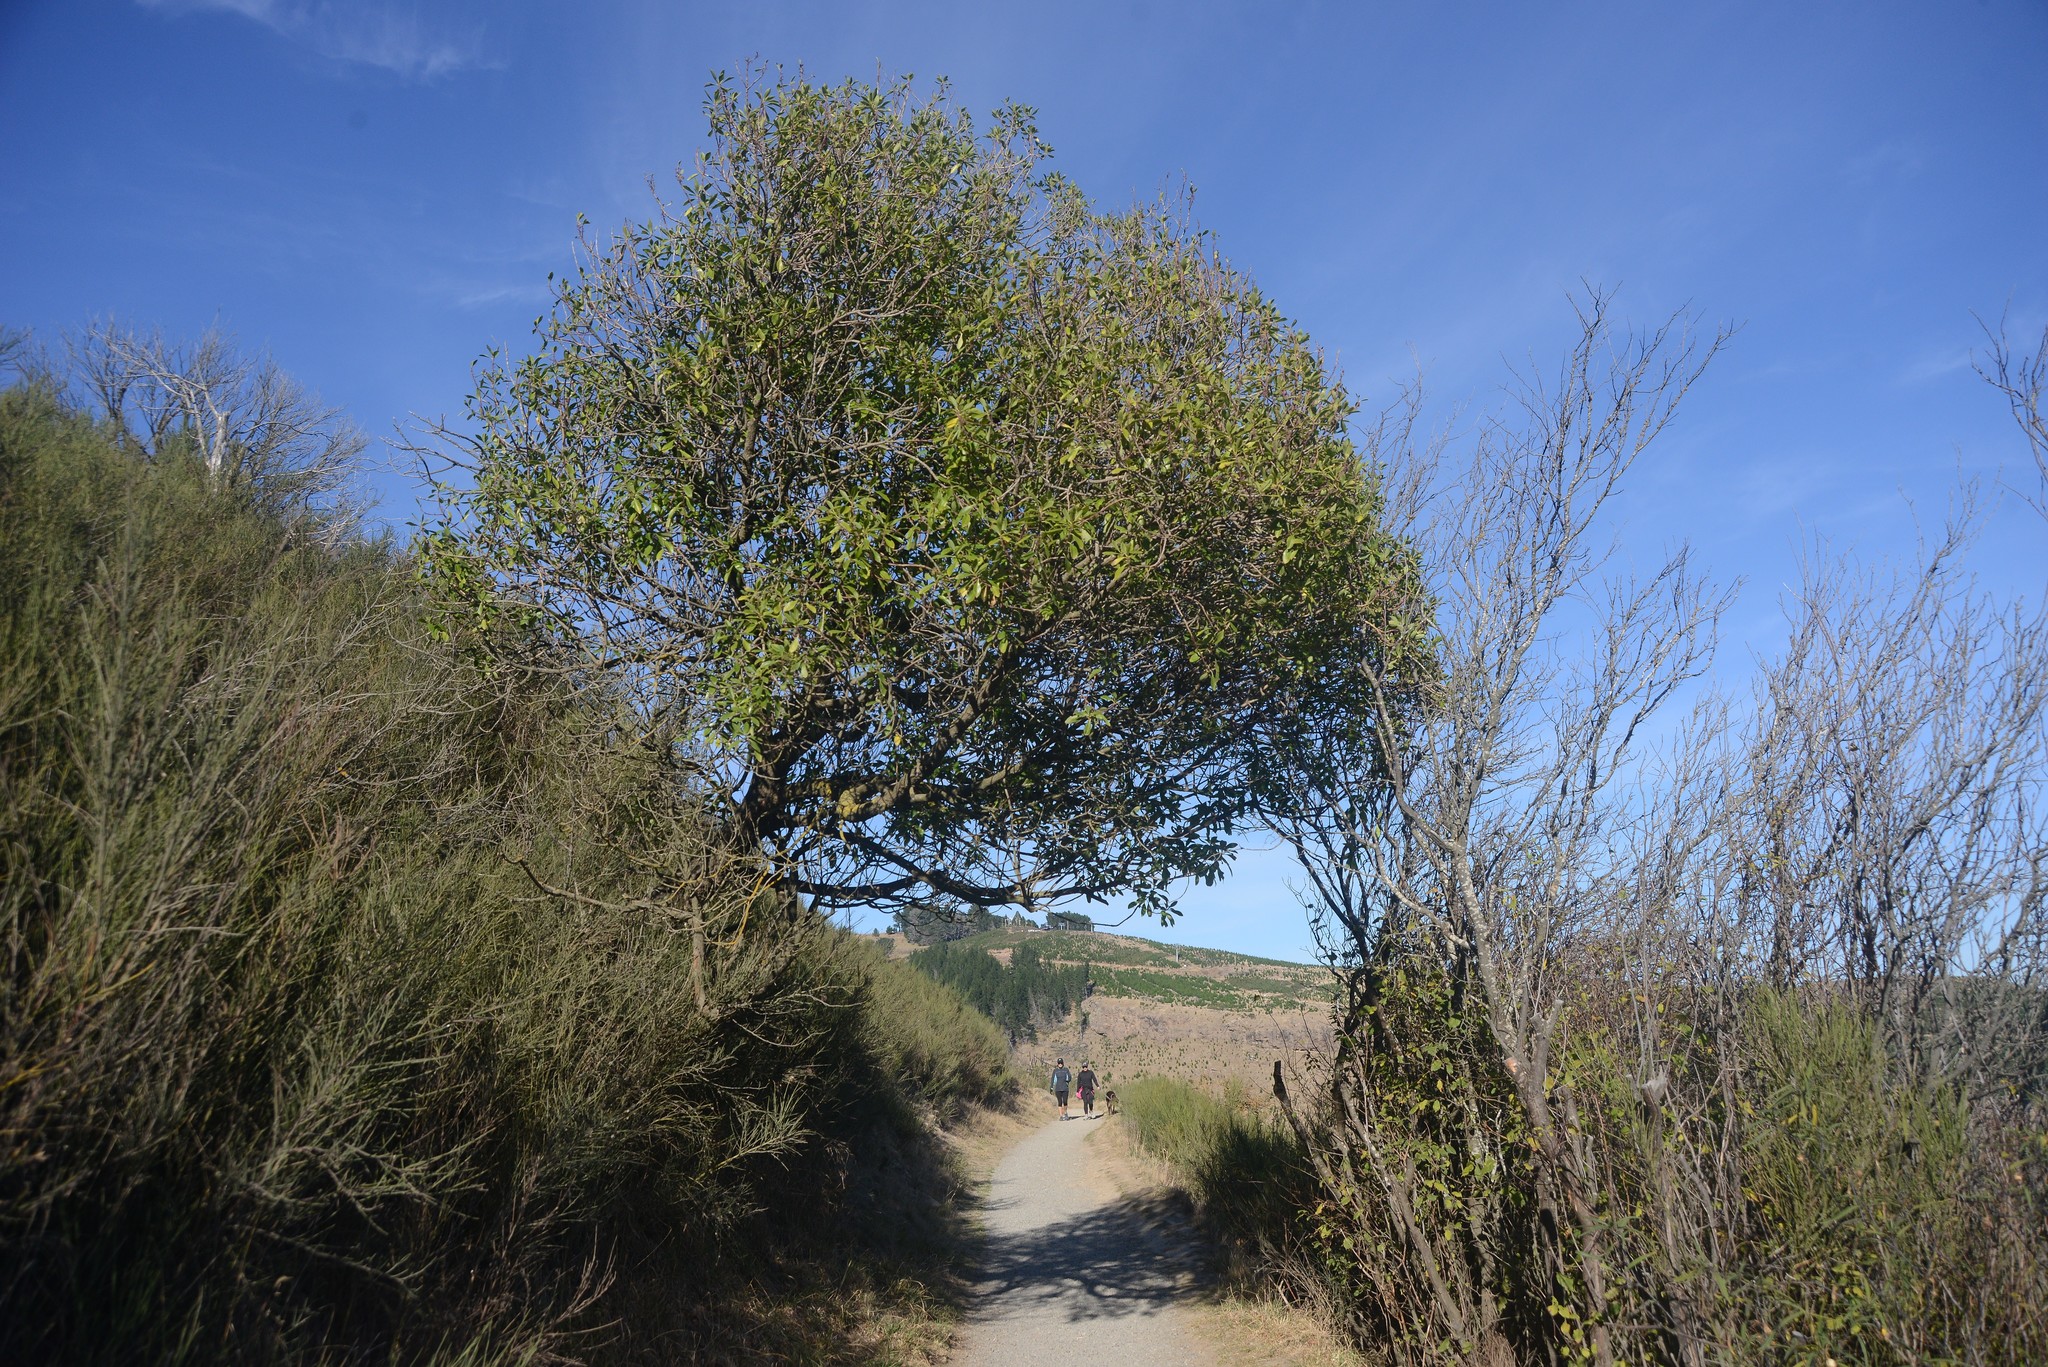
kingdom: Plantae
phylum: Tracheophyta
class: Magnoliopsida
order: Lamiales
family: Scrophulariaceae
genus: Myoporum
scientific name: Myoporum laetum
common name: Ngaio tree
